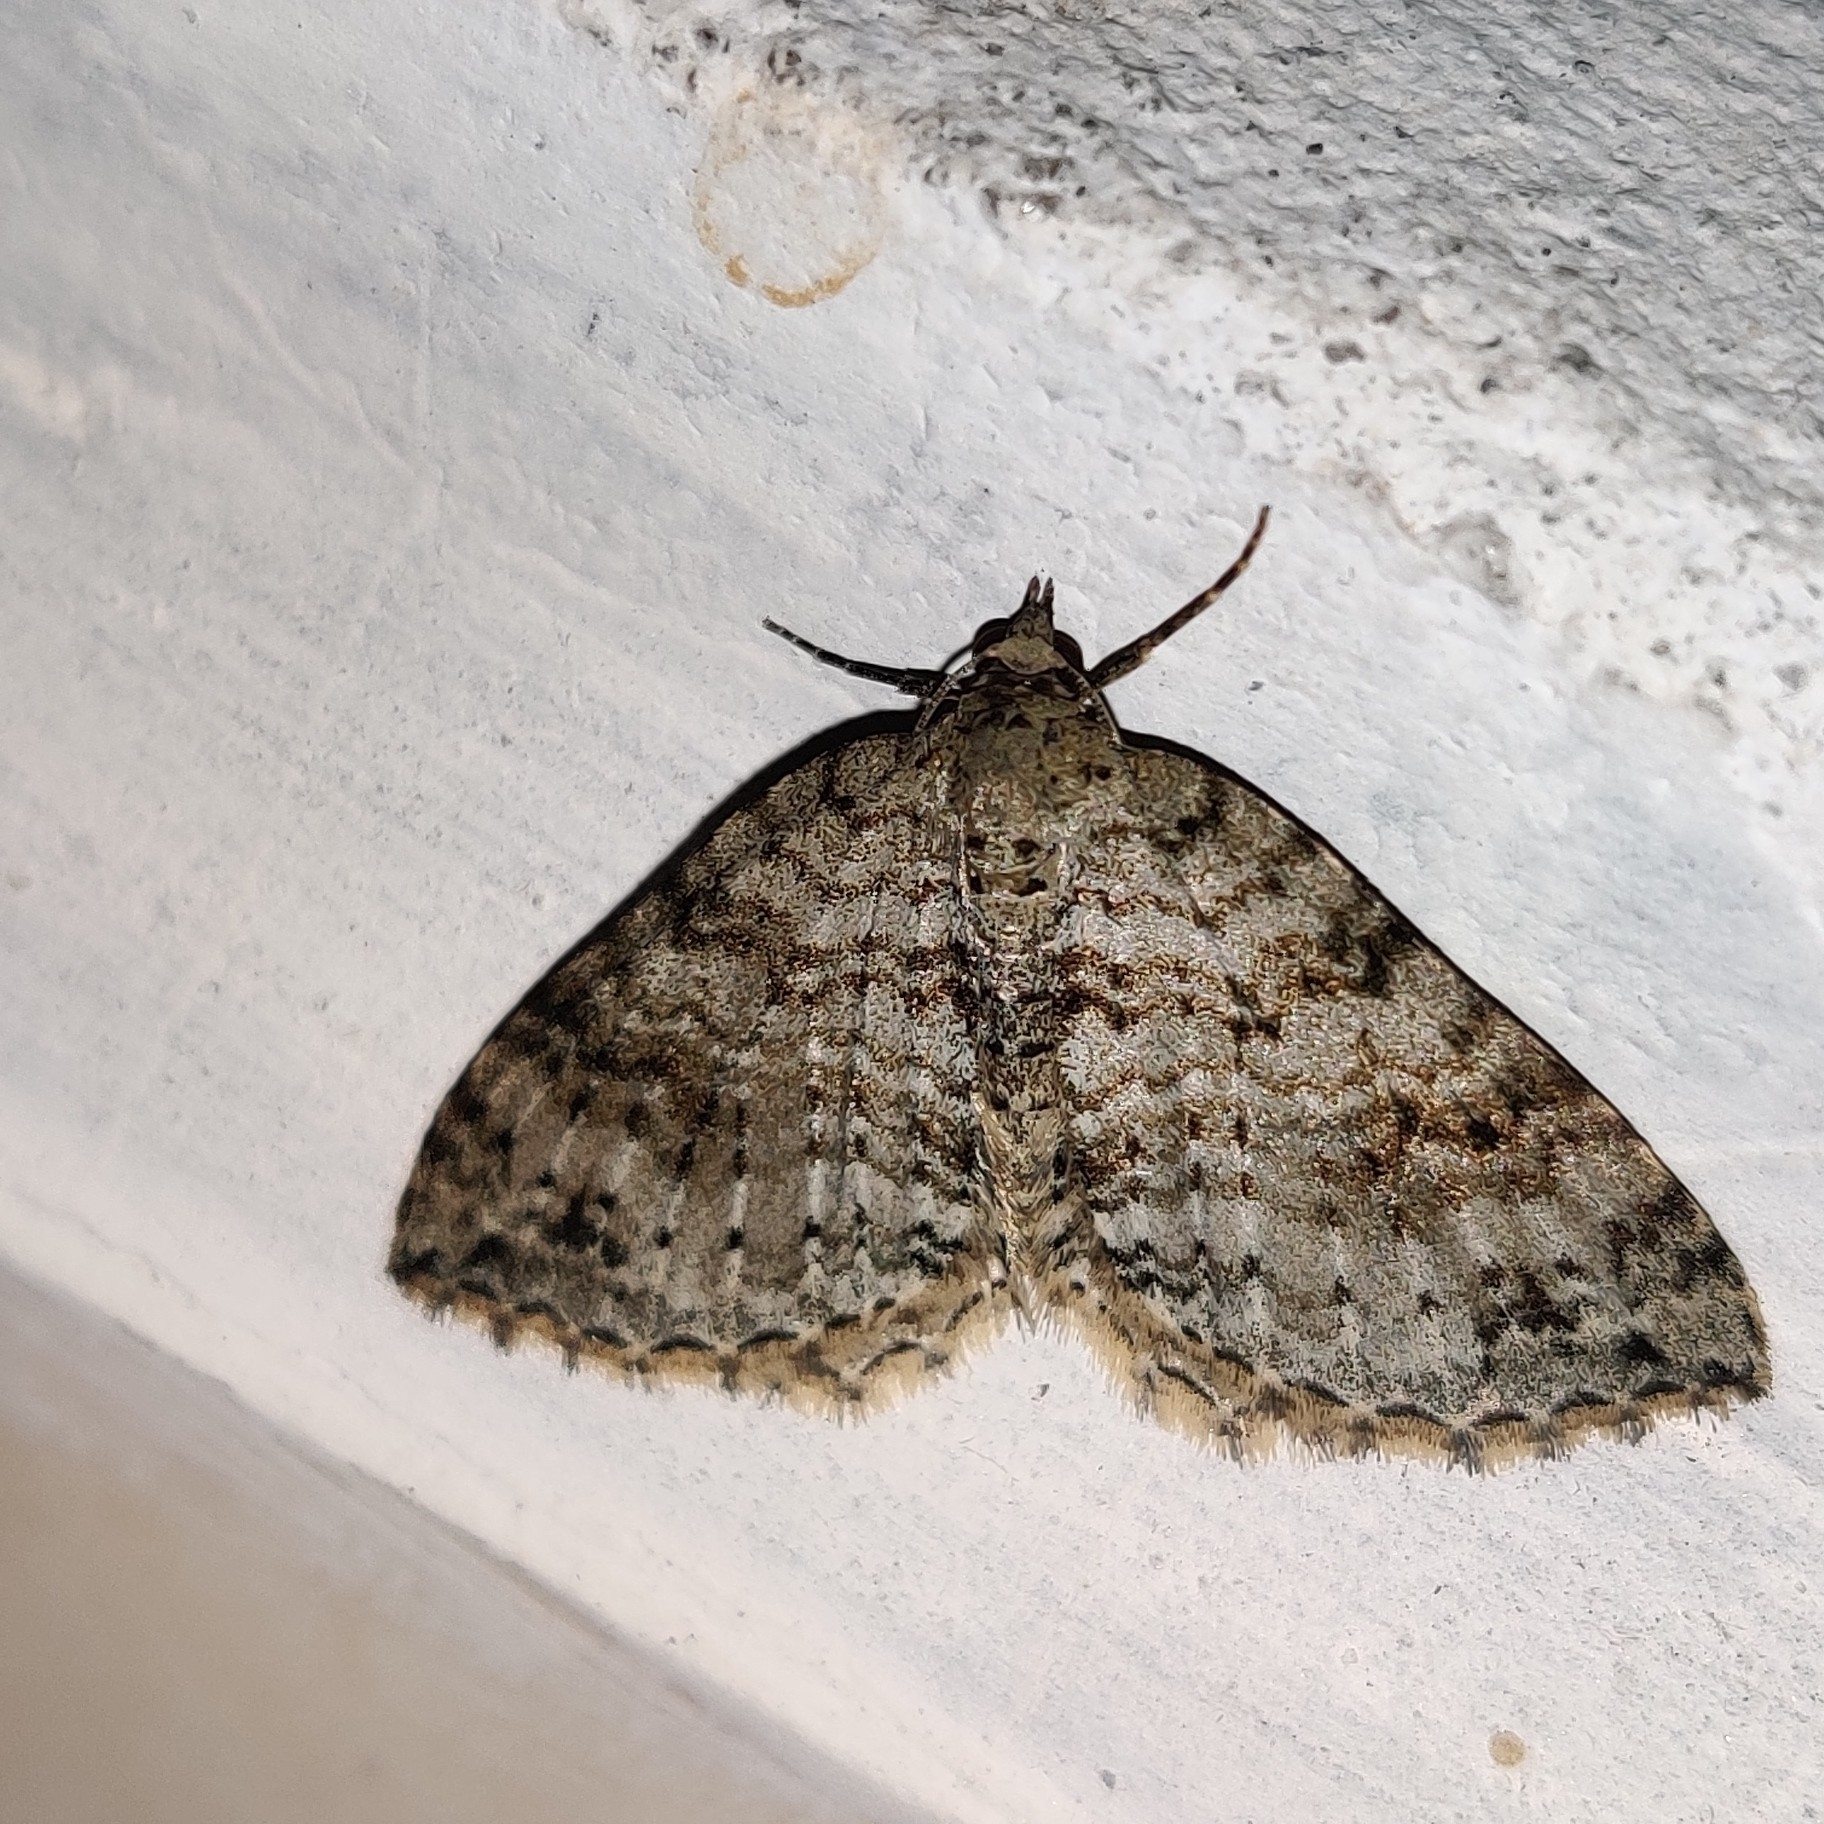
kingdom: Animalia
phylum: Arthropoda
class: Insecta
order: Lepidoptera
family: Geometridae
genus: Atopophysa
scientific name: Atopophysa indistincta
